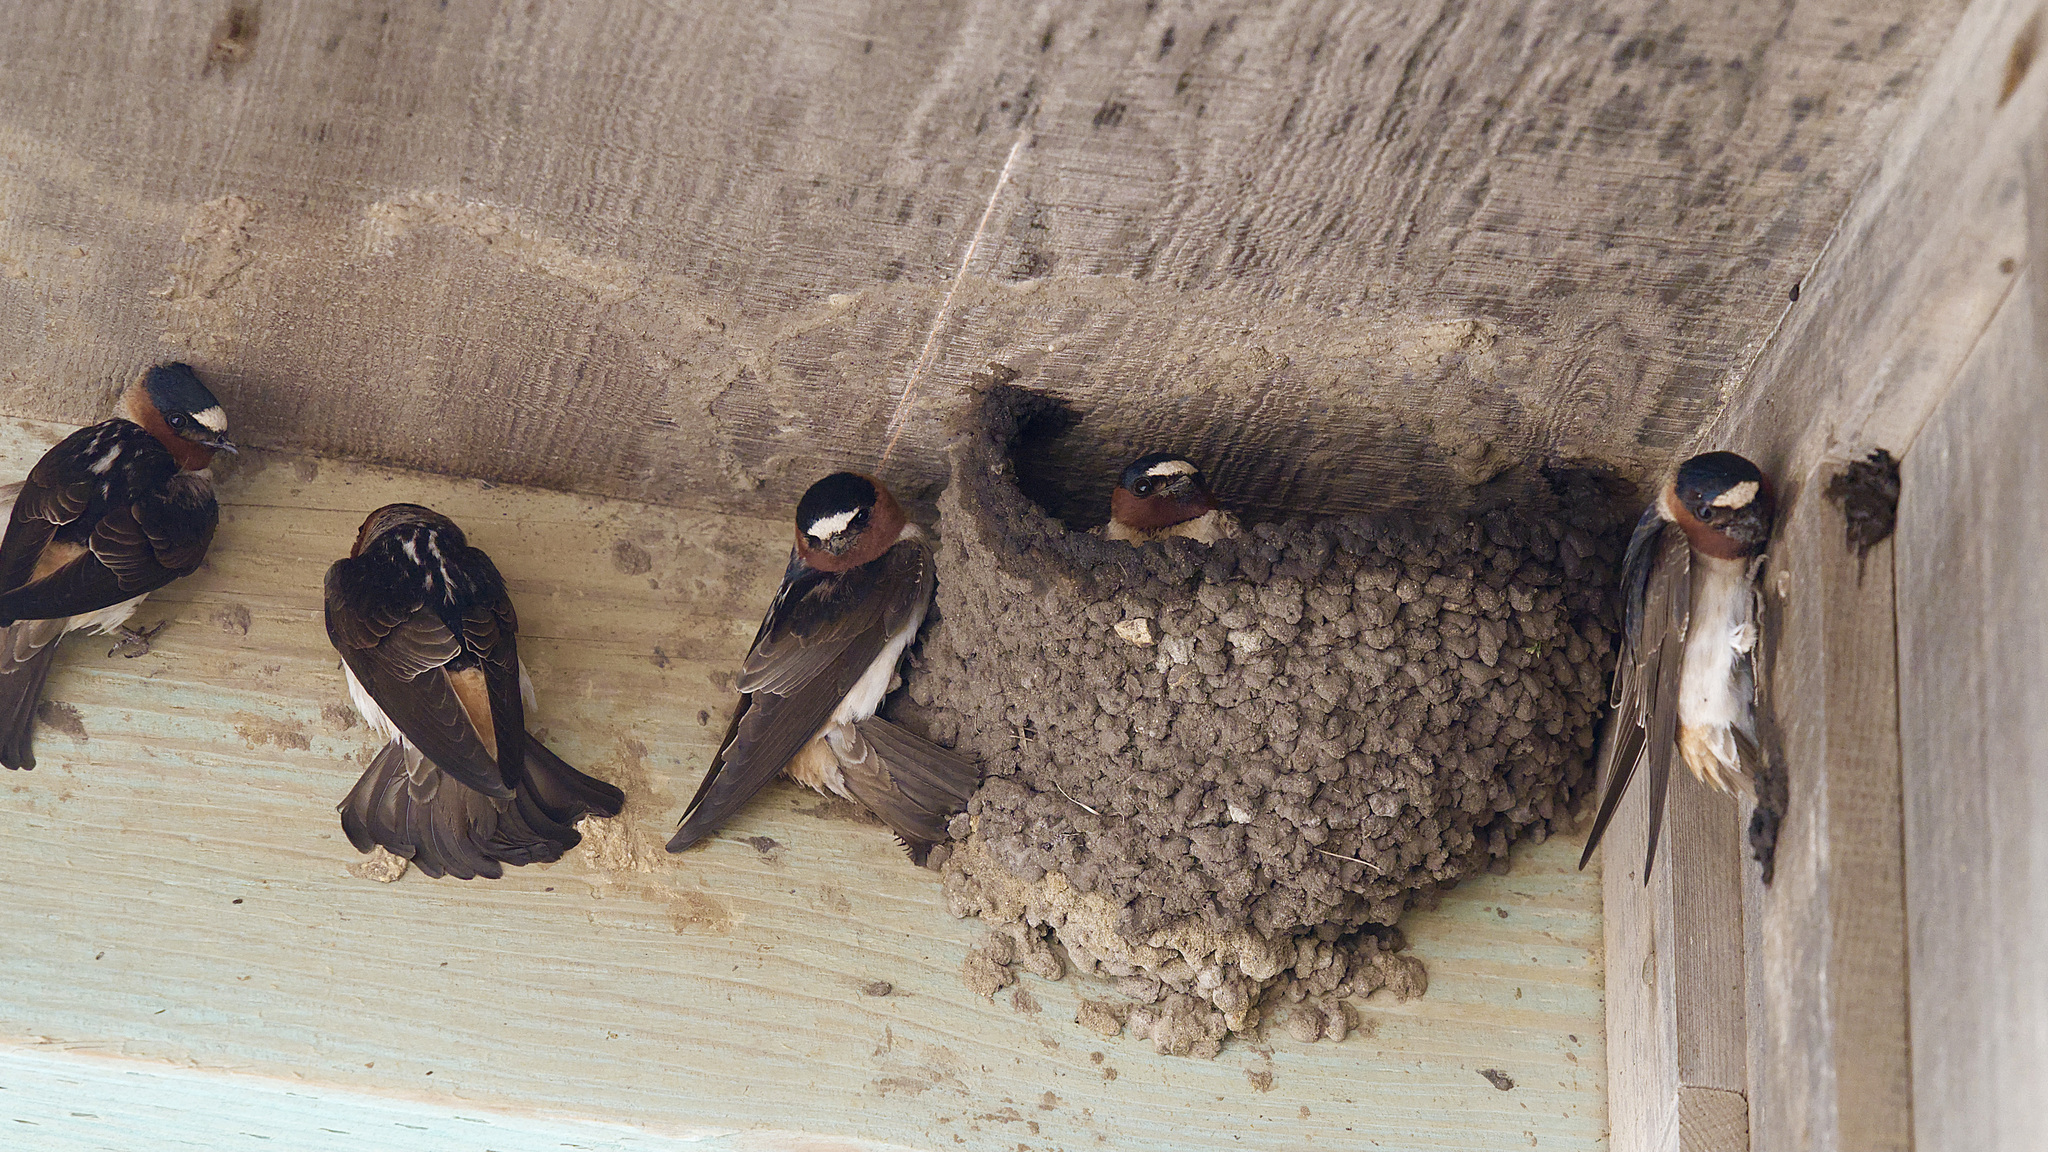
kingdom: Animalia
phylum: Chordata
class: Aves
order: Passeriformes
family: Hirundinidae
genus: Petrochelidon
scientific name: Petrochelidon pyrrhonota
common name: American cliff swallow
